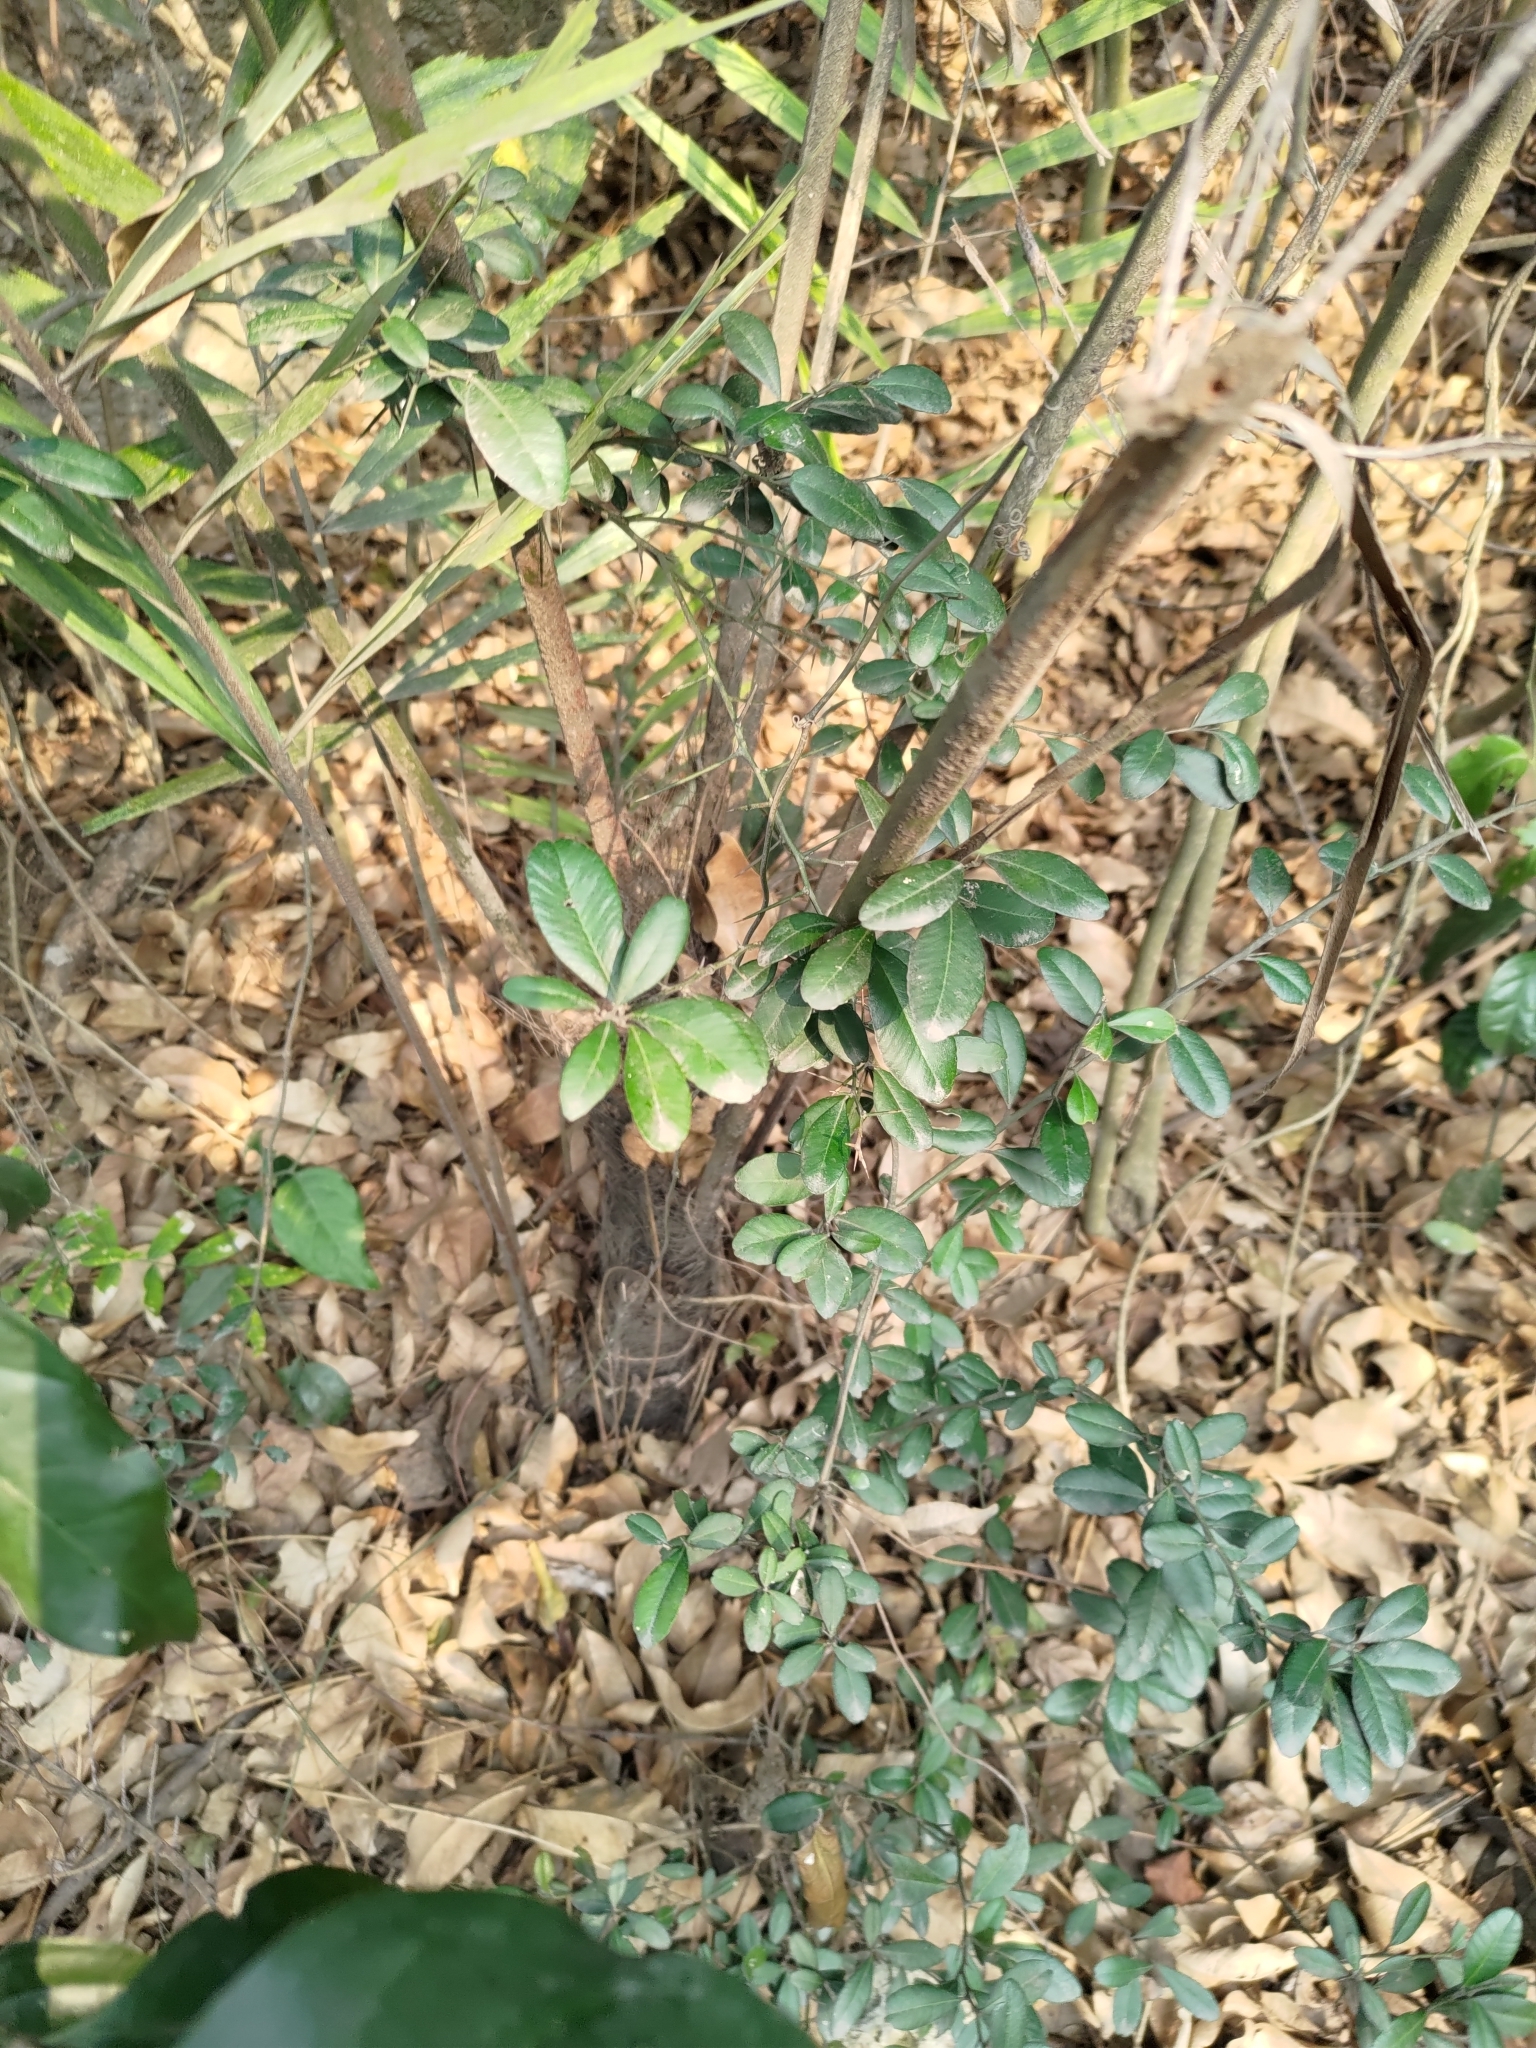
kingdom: Plantae
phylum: Tracheophyta
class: Magnoliopsida
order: Sapindales
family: Rutaceae
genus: Atalantia
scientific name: Atalantia buxifolia
